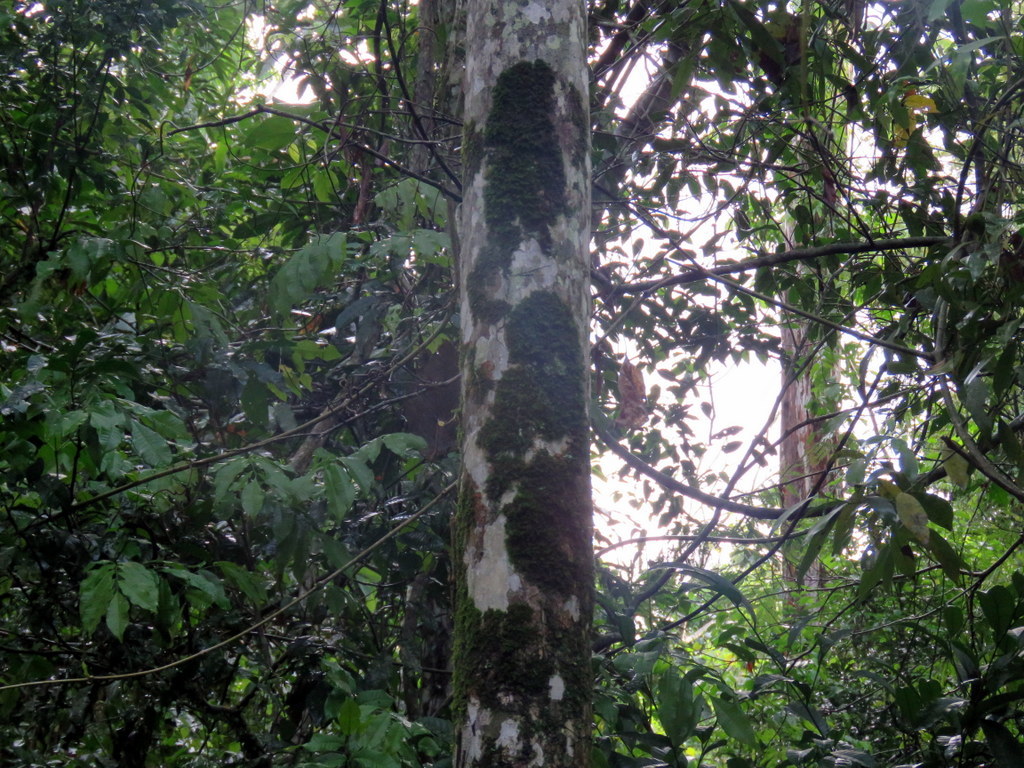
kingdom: Plantae
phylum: Tracheophyta
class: Liliopsida
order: Arecales
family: Arecaceae
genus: Syagrus
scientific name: Syagrus romanzoffiana
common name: Queen palm
